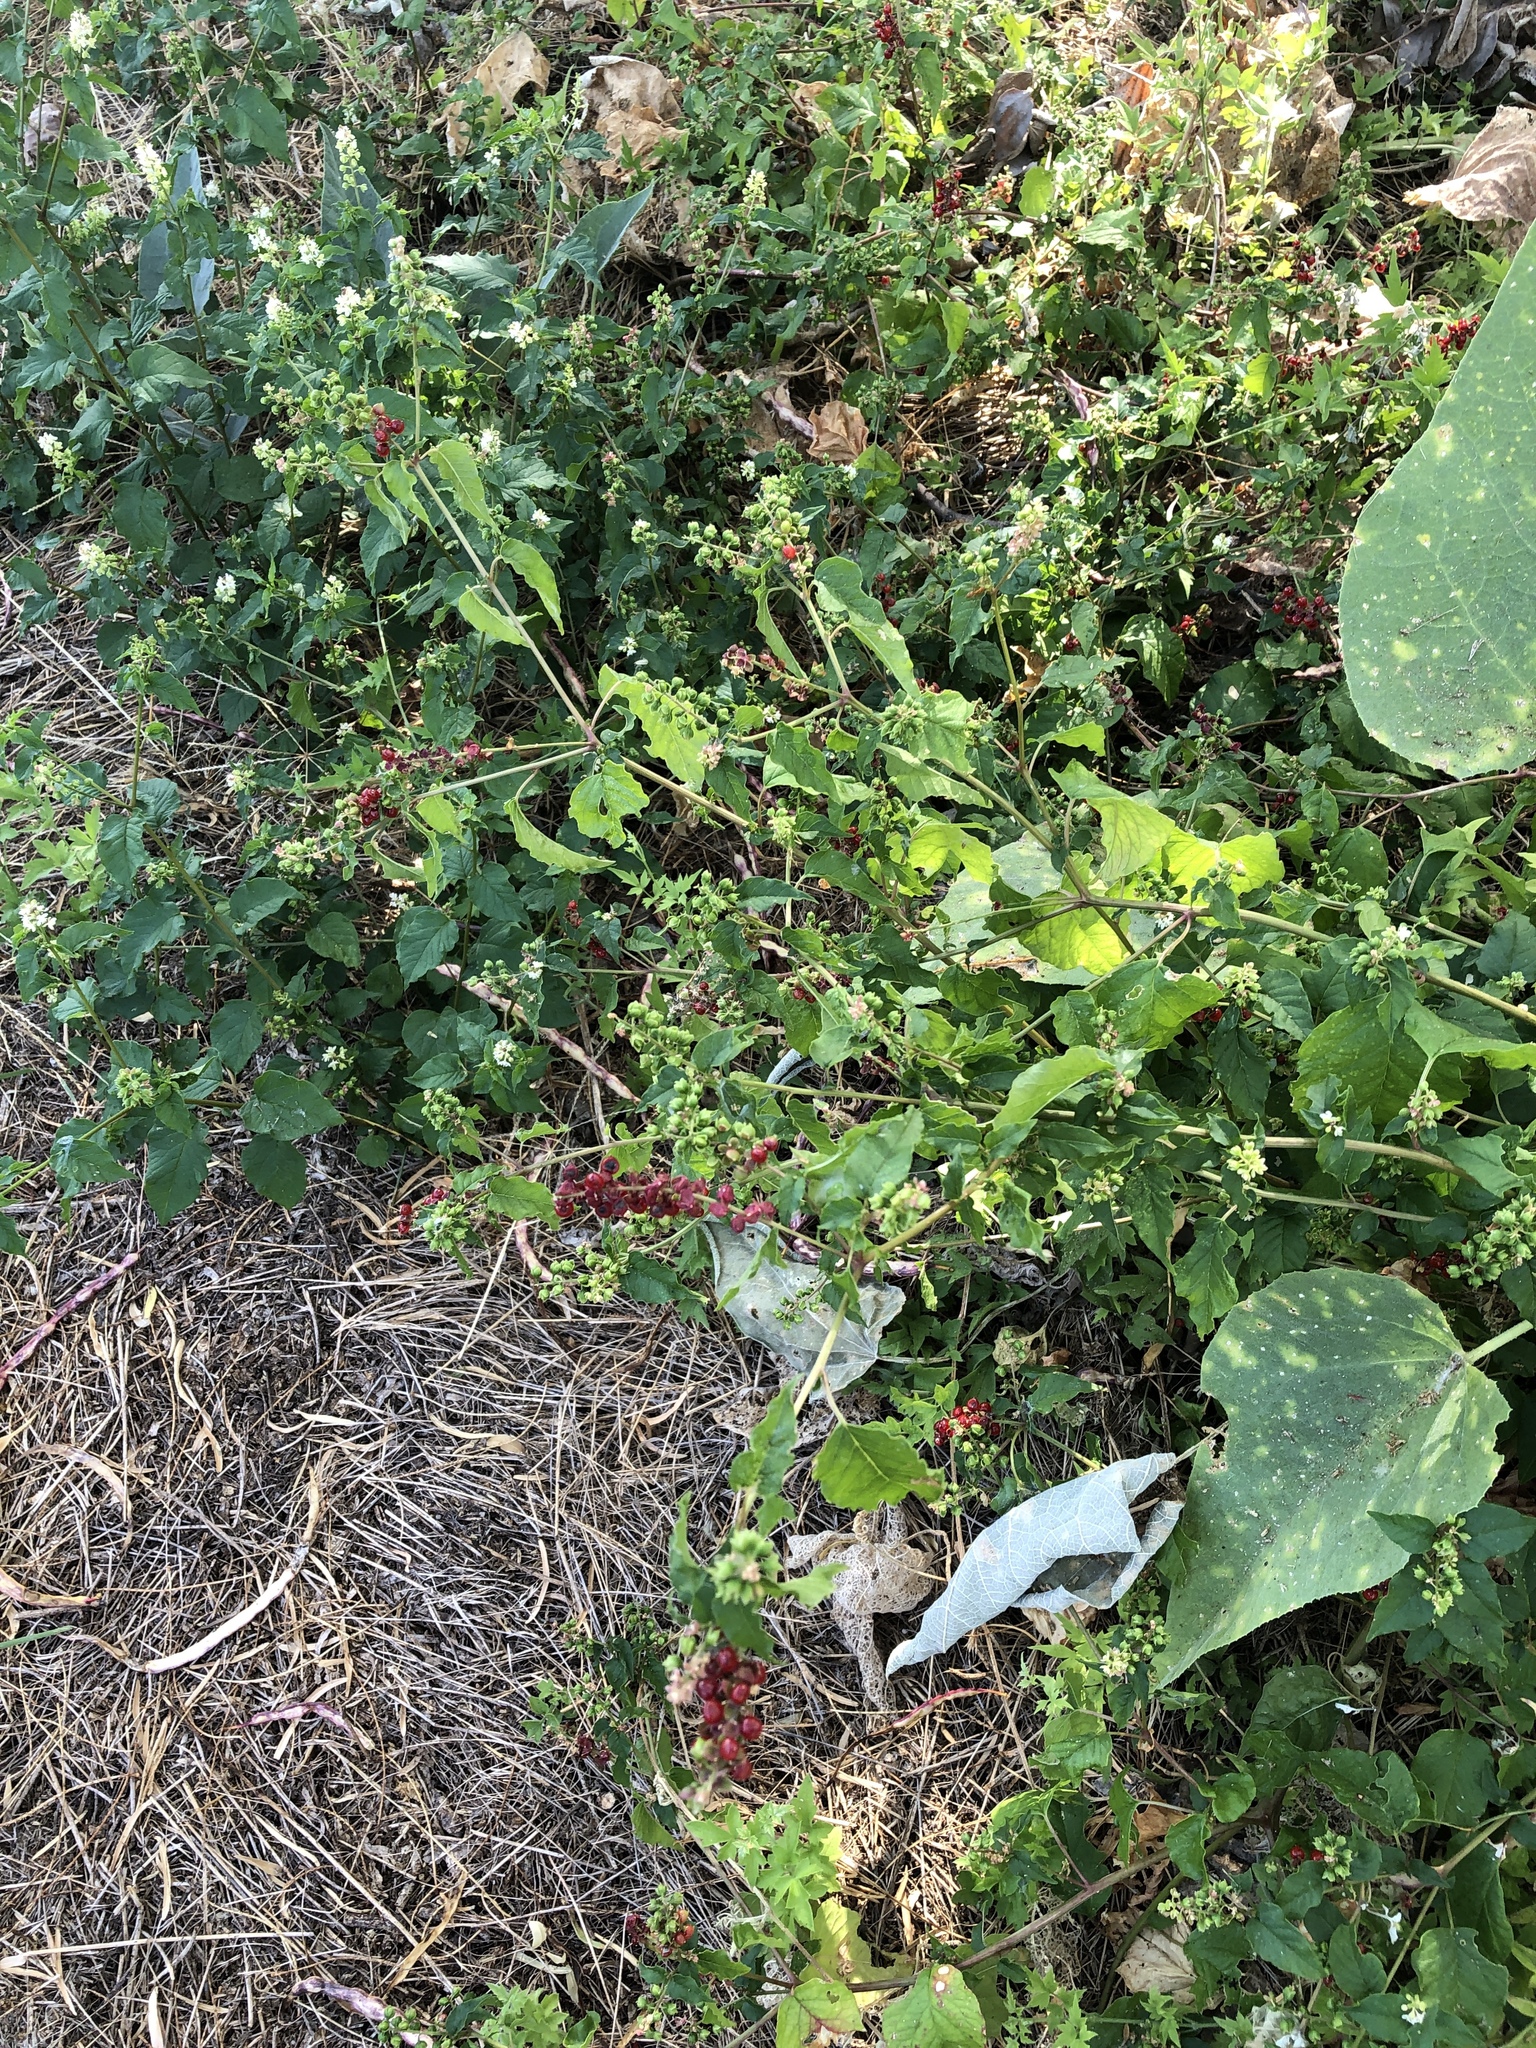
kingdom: Plantae
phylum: Tracheophyta
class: Magnoliopsida
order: Caryophyllales
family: Phytolaccaceae
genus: Rivina
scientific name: Rivina humilis
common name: Rougeplant
